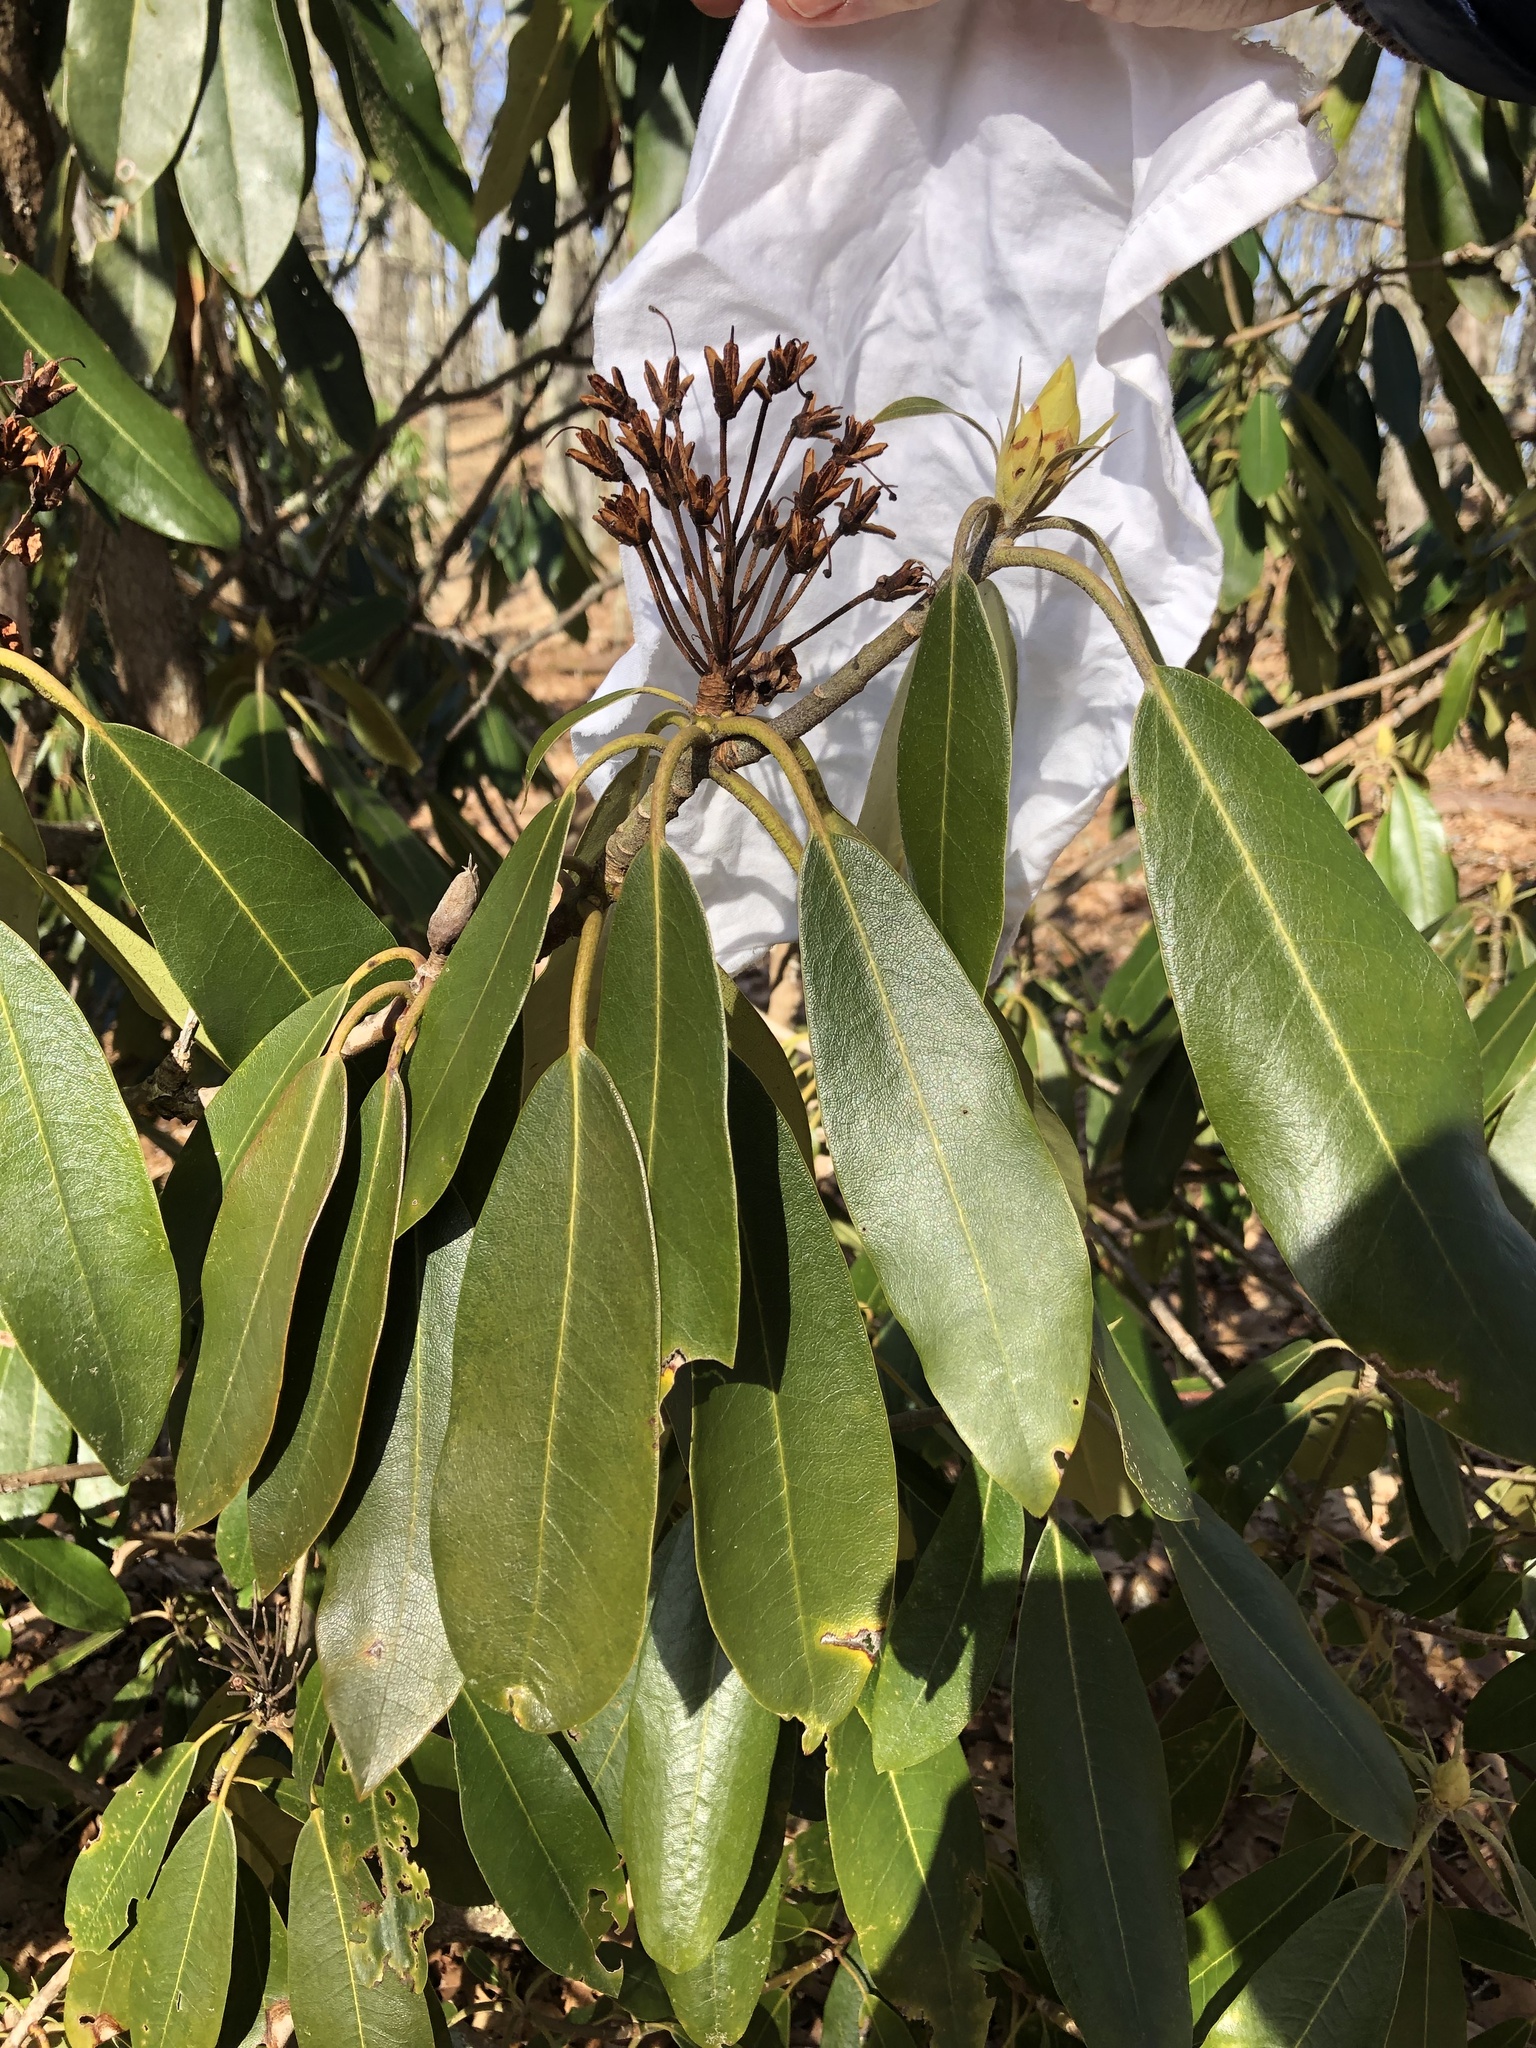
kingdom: Plantae
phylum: Tracheophyta
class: Magnoliopsida
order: Ericales
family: Ericaceae
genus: Rhododendron
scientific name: Rhododendron maximum
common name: Great rhododendron
